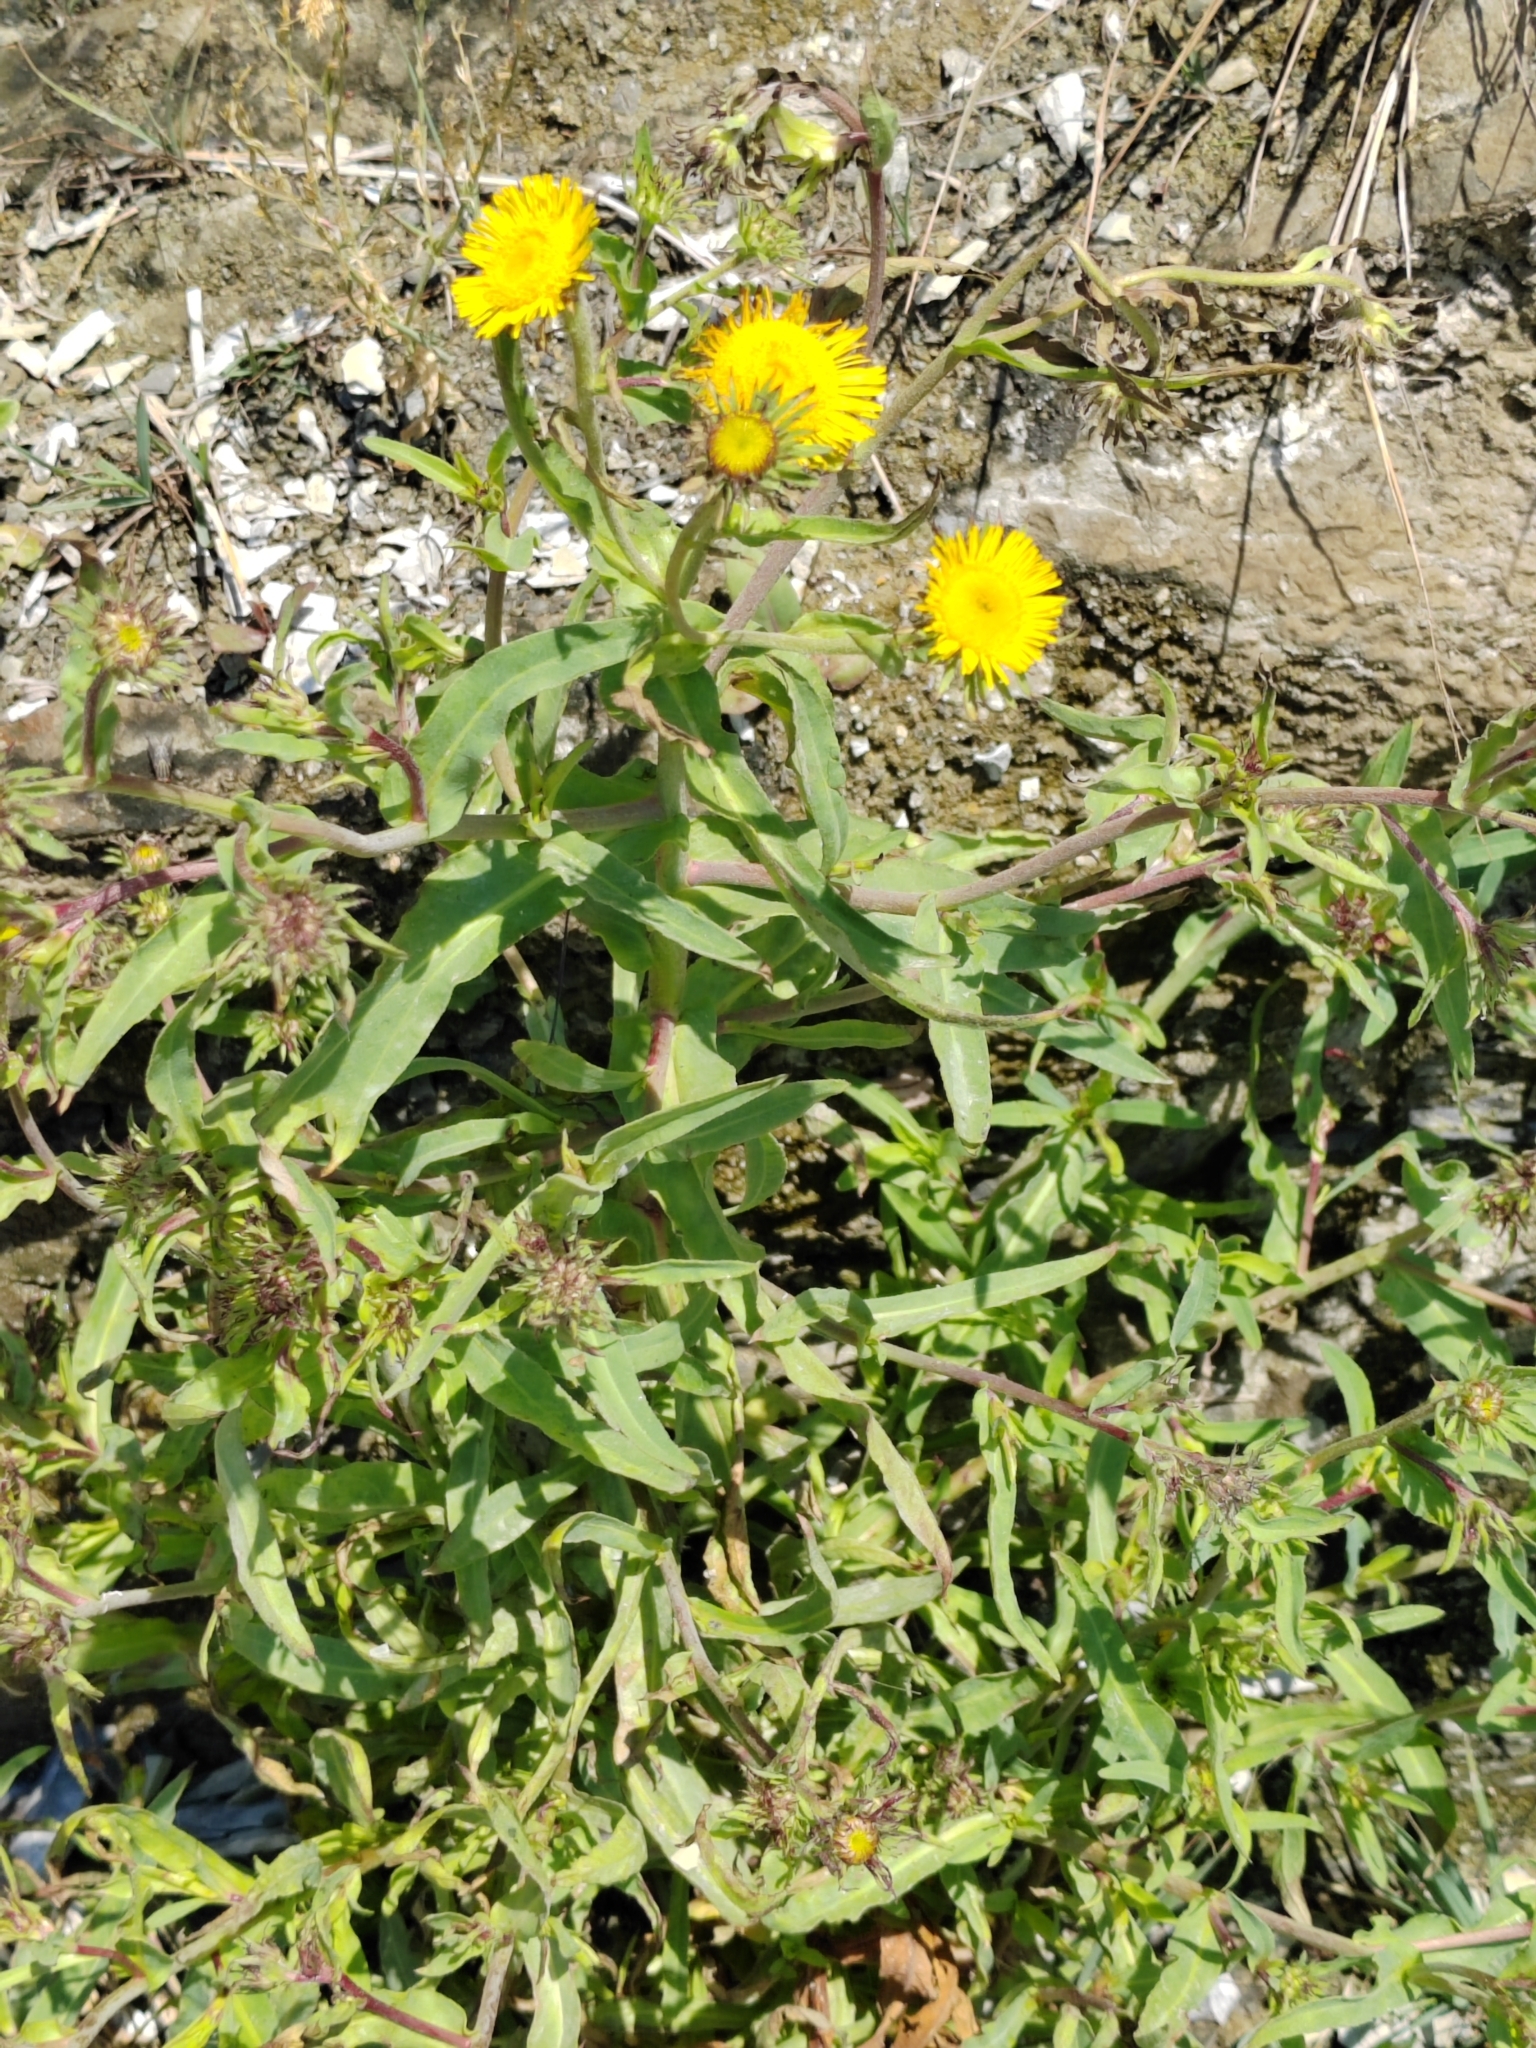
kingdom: Plantae
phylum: Tracheophyta
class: Magnoliopsida
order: Asterales
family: Asteraceae
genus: Pentanema
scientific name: Pentanema caspicum
